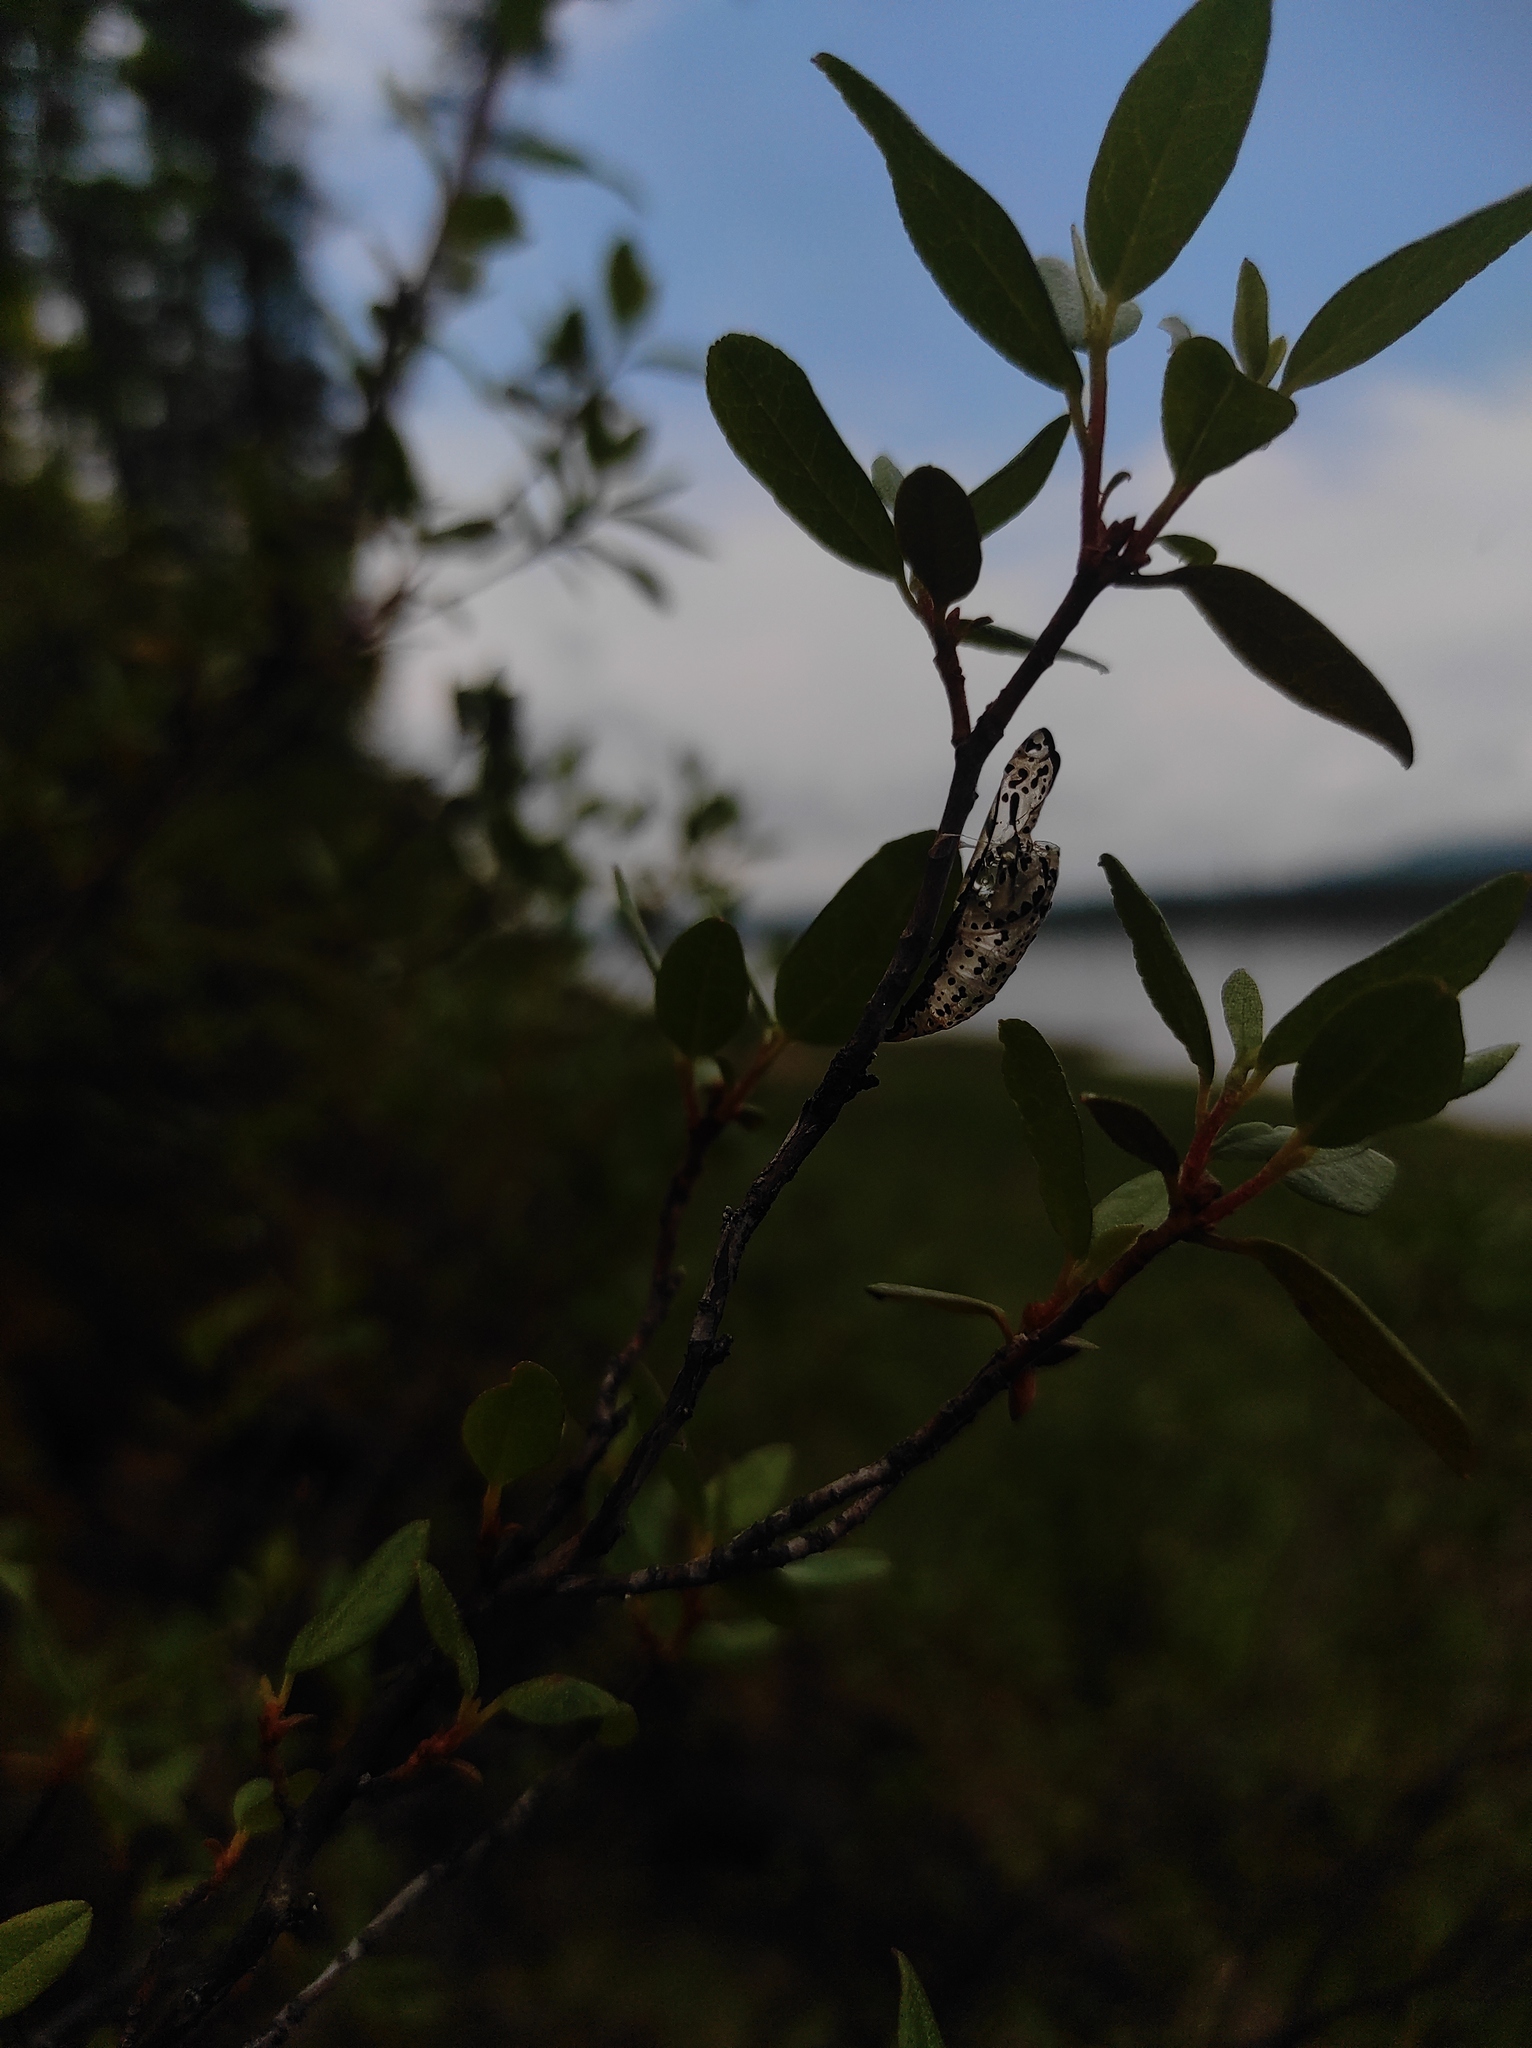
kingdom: Plantae
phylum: Tracheophyta
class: Magnoliopsida
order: Ericales
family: Ericaceae
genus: Vaccinium
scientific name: Vaccinium uliginosum
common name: Bog bilberry
